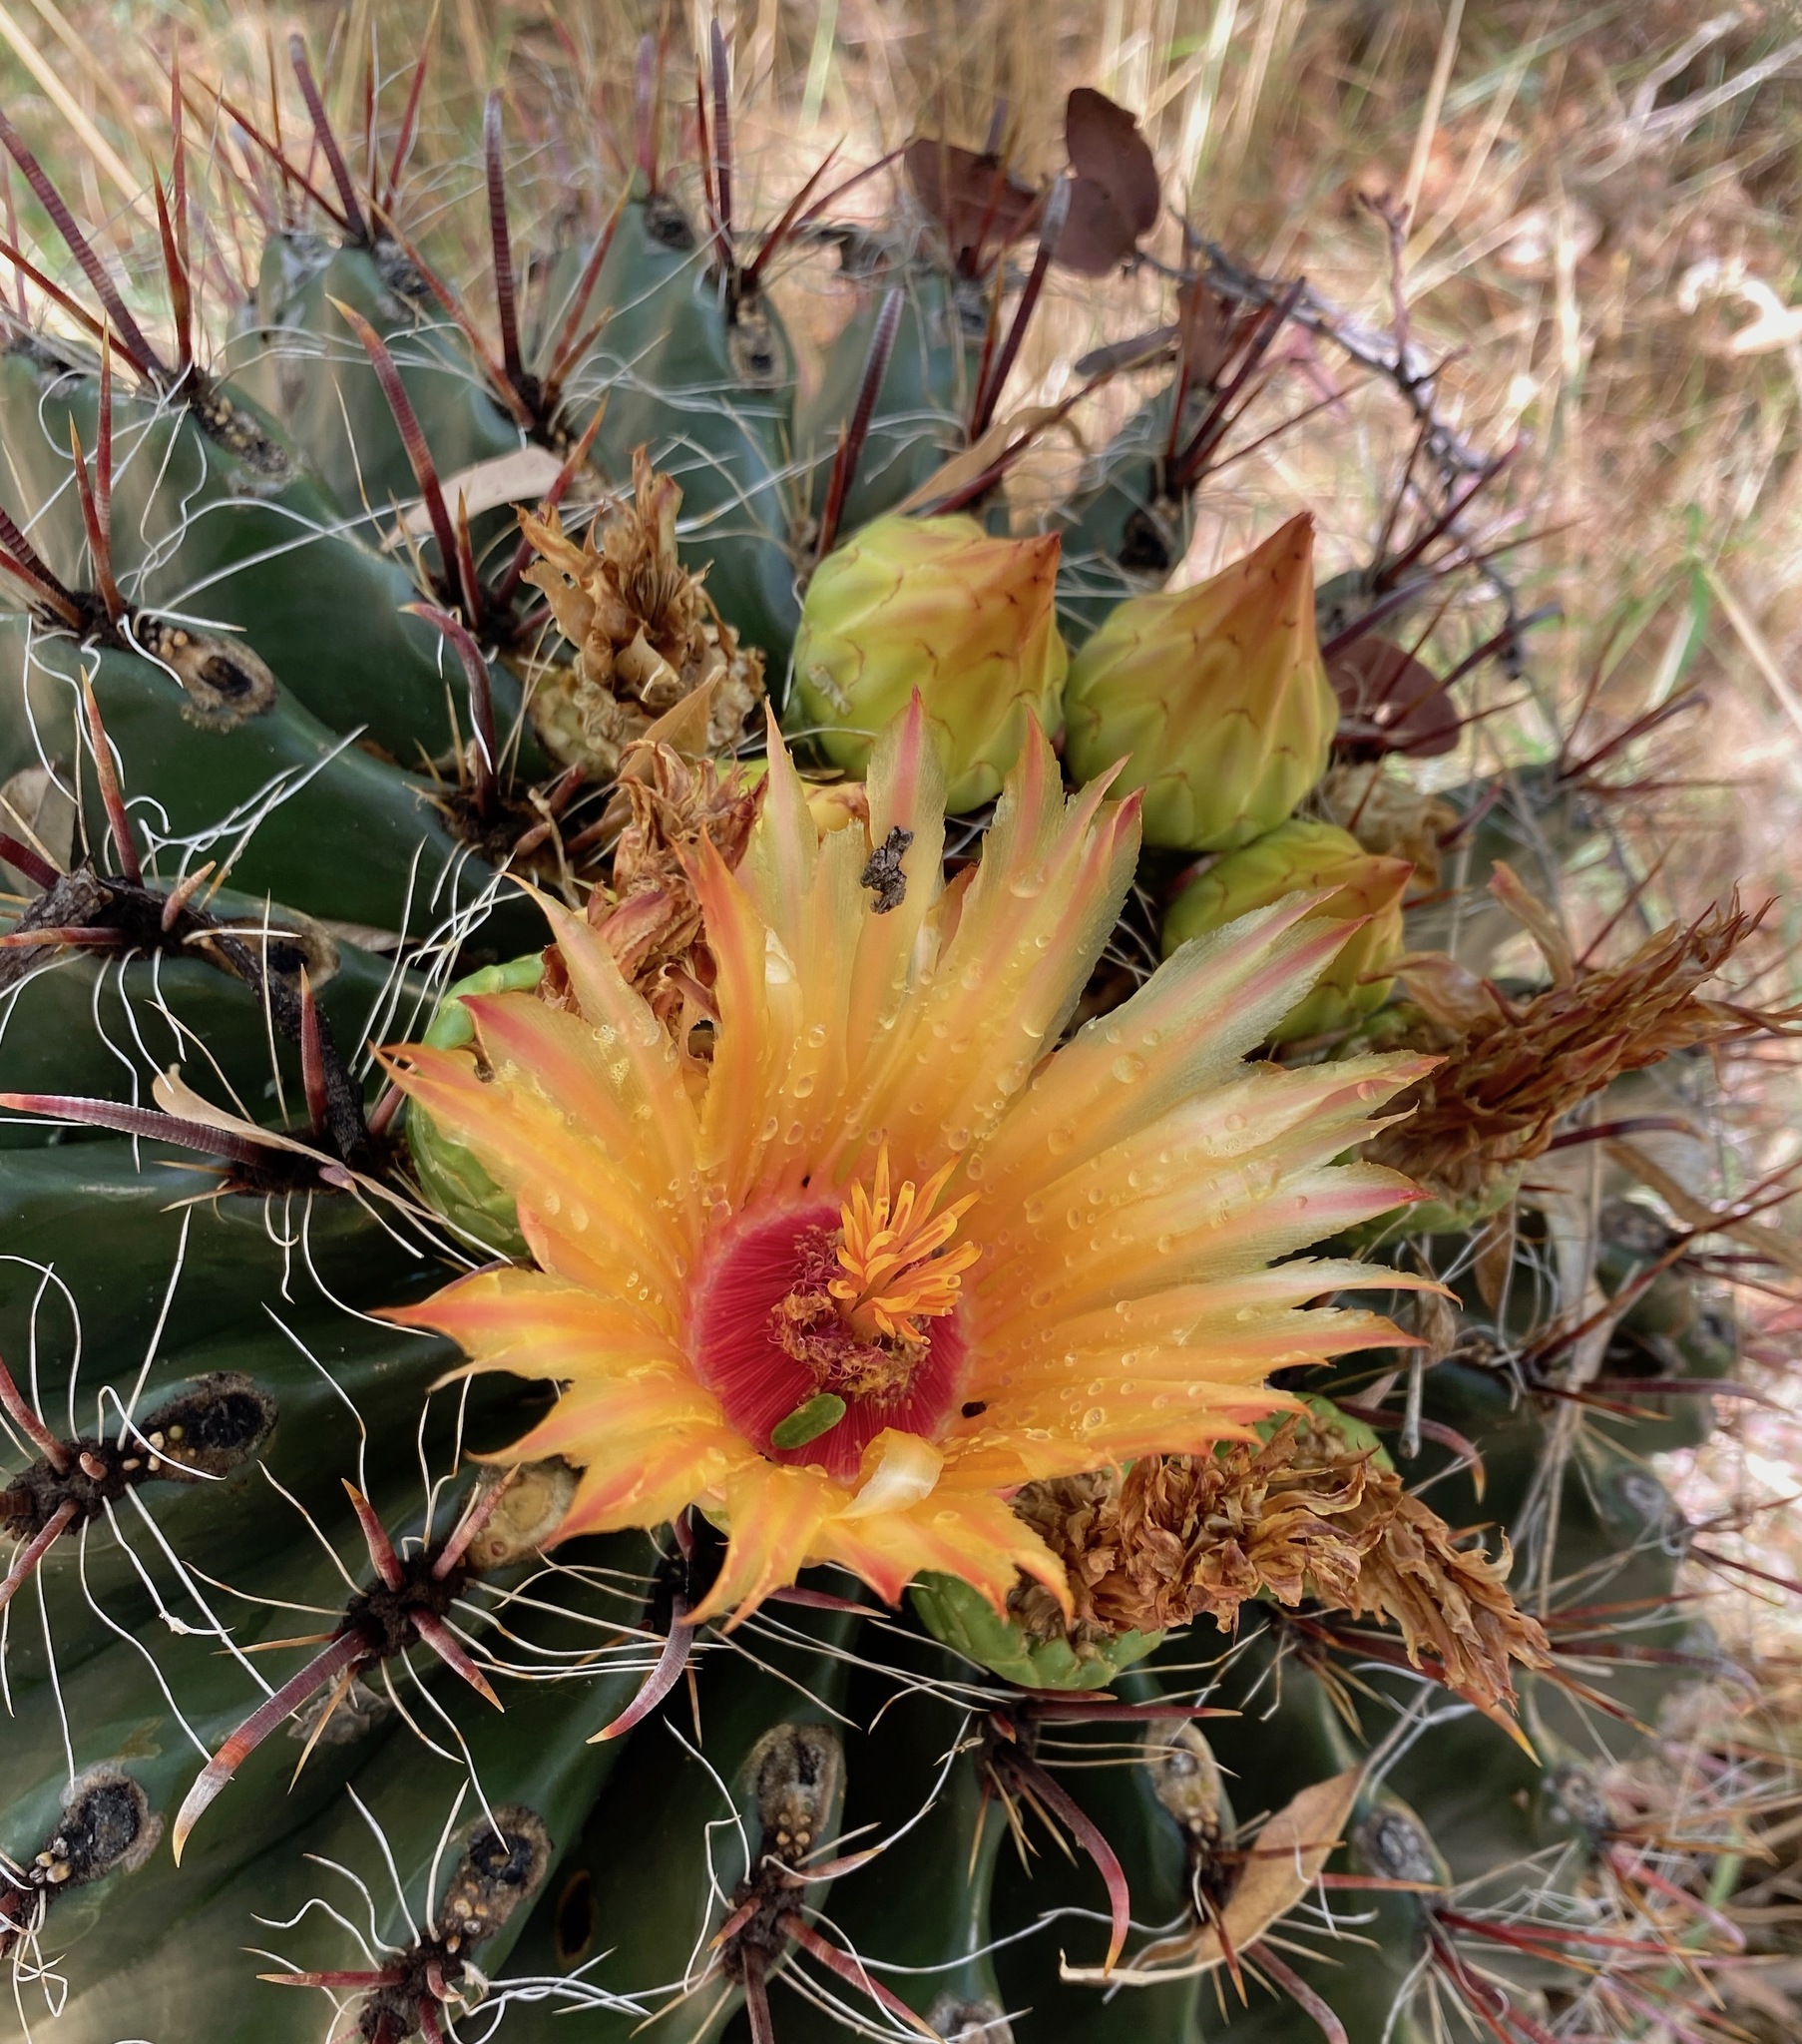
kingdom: Plantae
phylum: Tracheophyta
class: Magnoliopsida
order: Caryophyllales
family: Cactaceae
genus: Ferocactus
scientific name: Ferocactus wislizeni
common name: Candy barrel cactus
